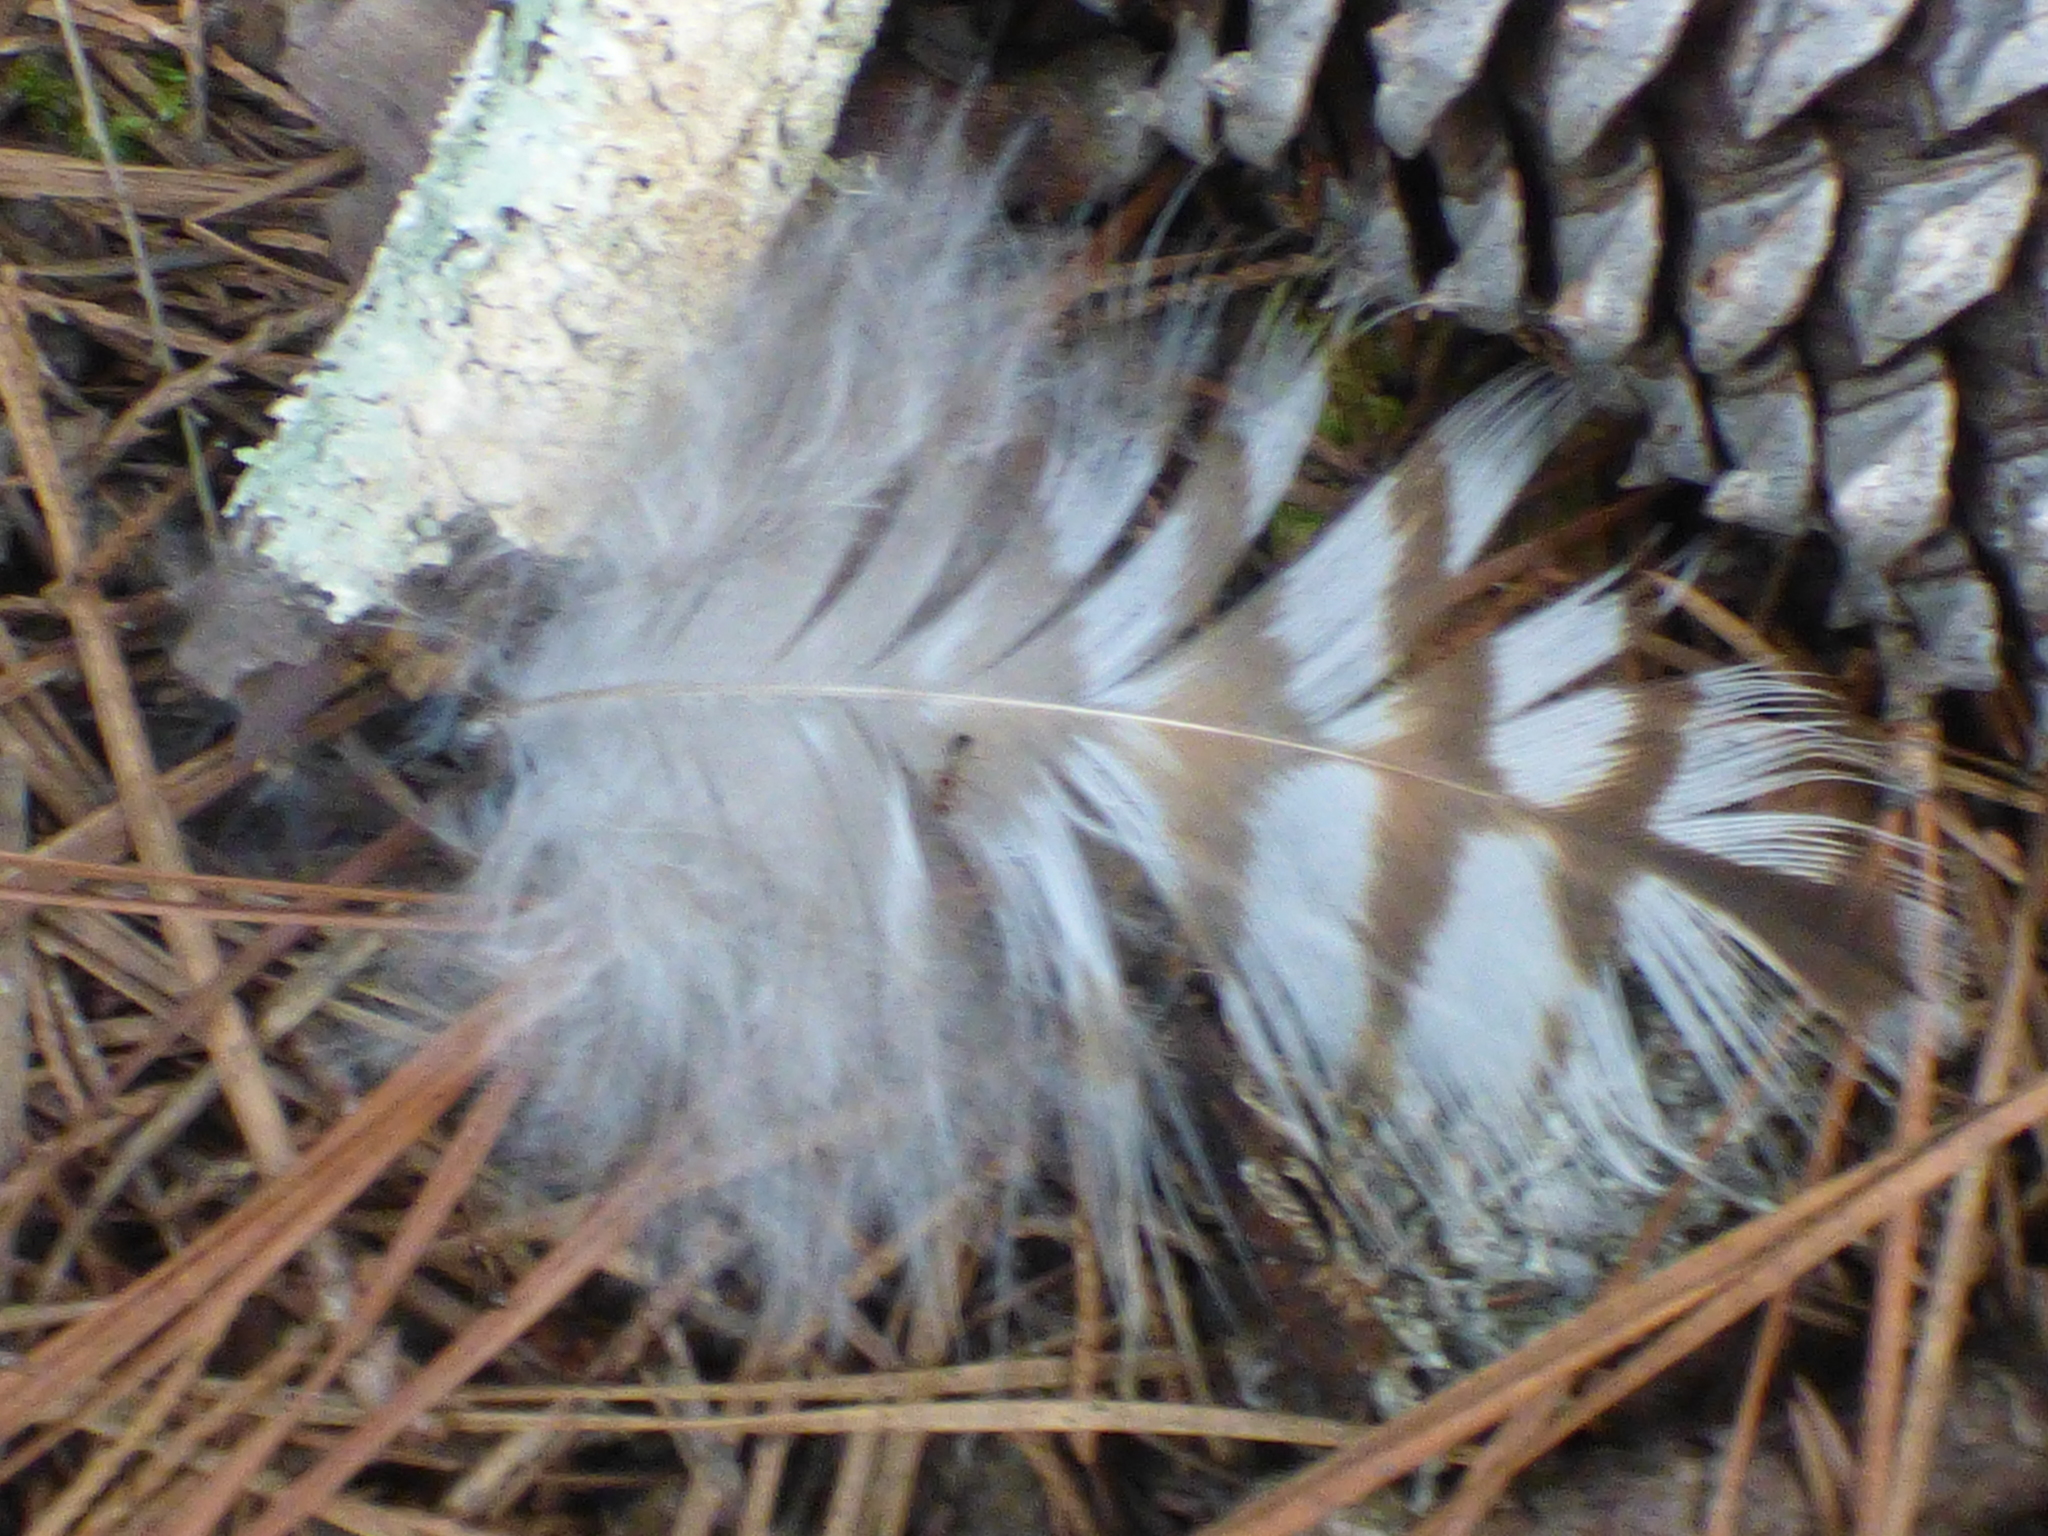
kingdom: Animalia
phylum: Chordata
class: Aves
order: Accipitriformes
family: Accipitridae
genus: Buteo
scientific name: Buteo jamaicensis
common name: Red-tailed hawk
